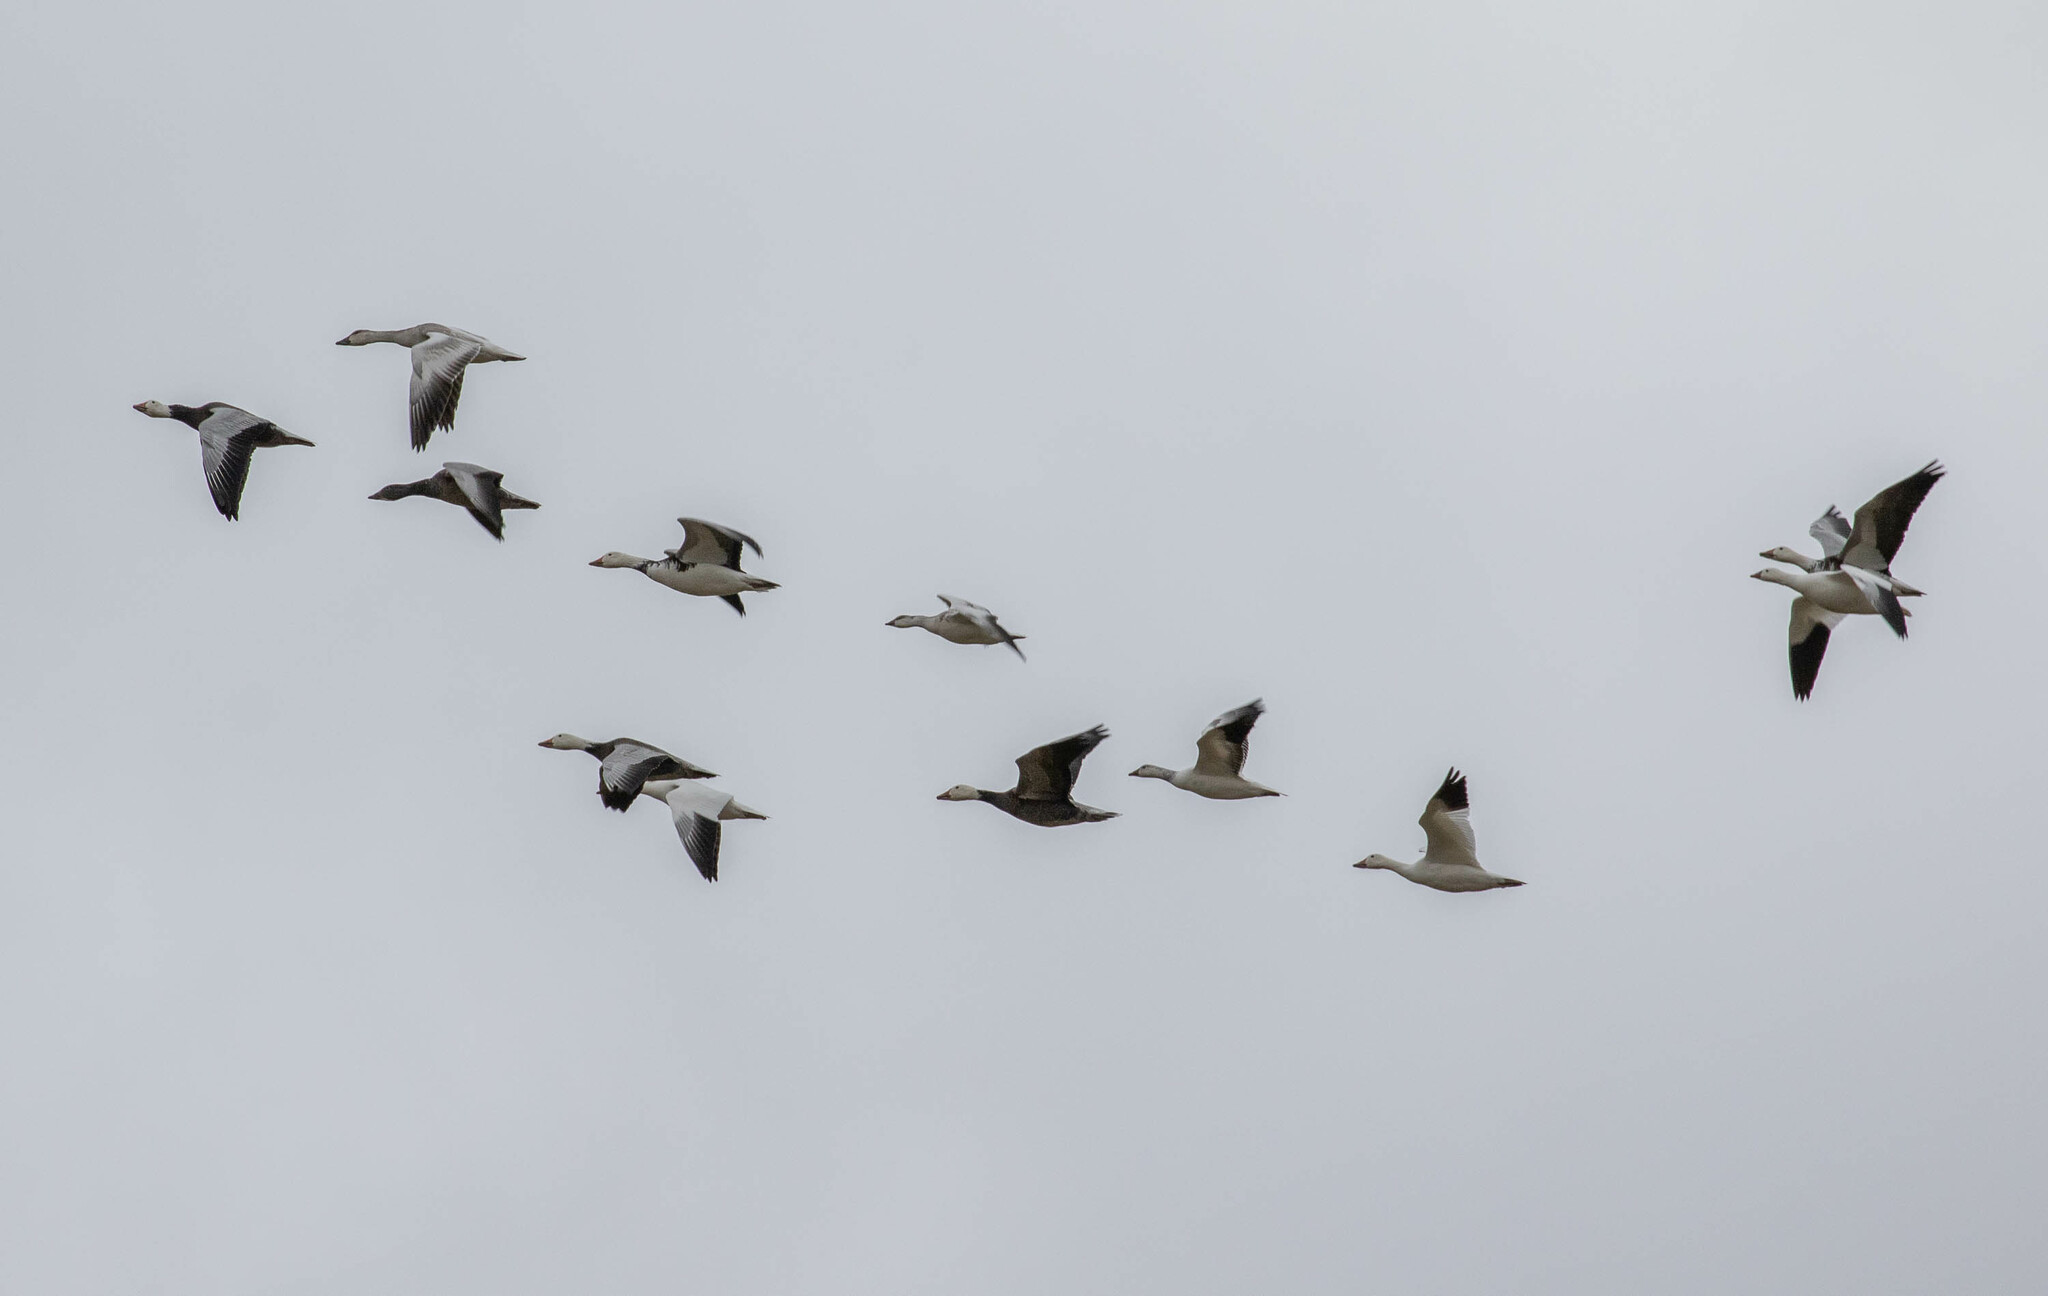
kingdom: Animalia
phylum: Chordata
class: Aves
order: Anseriformes
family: Anatidae
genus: Anser
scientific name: Anser rossii
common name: Ross's goose
